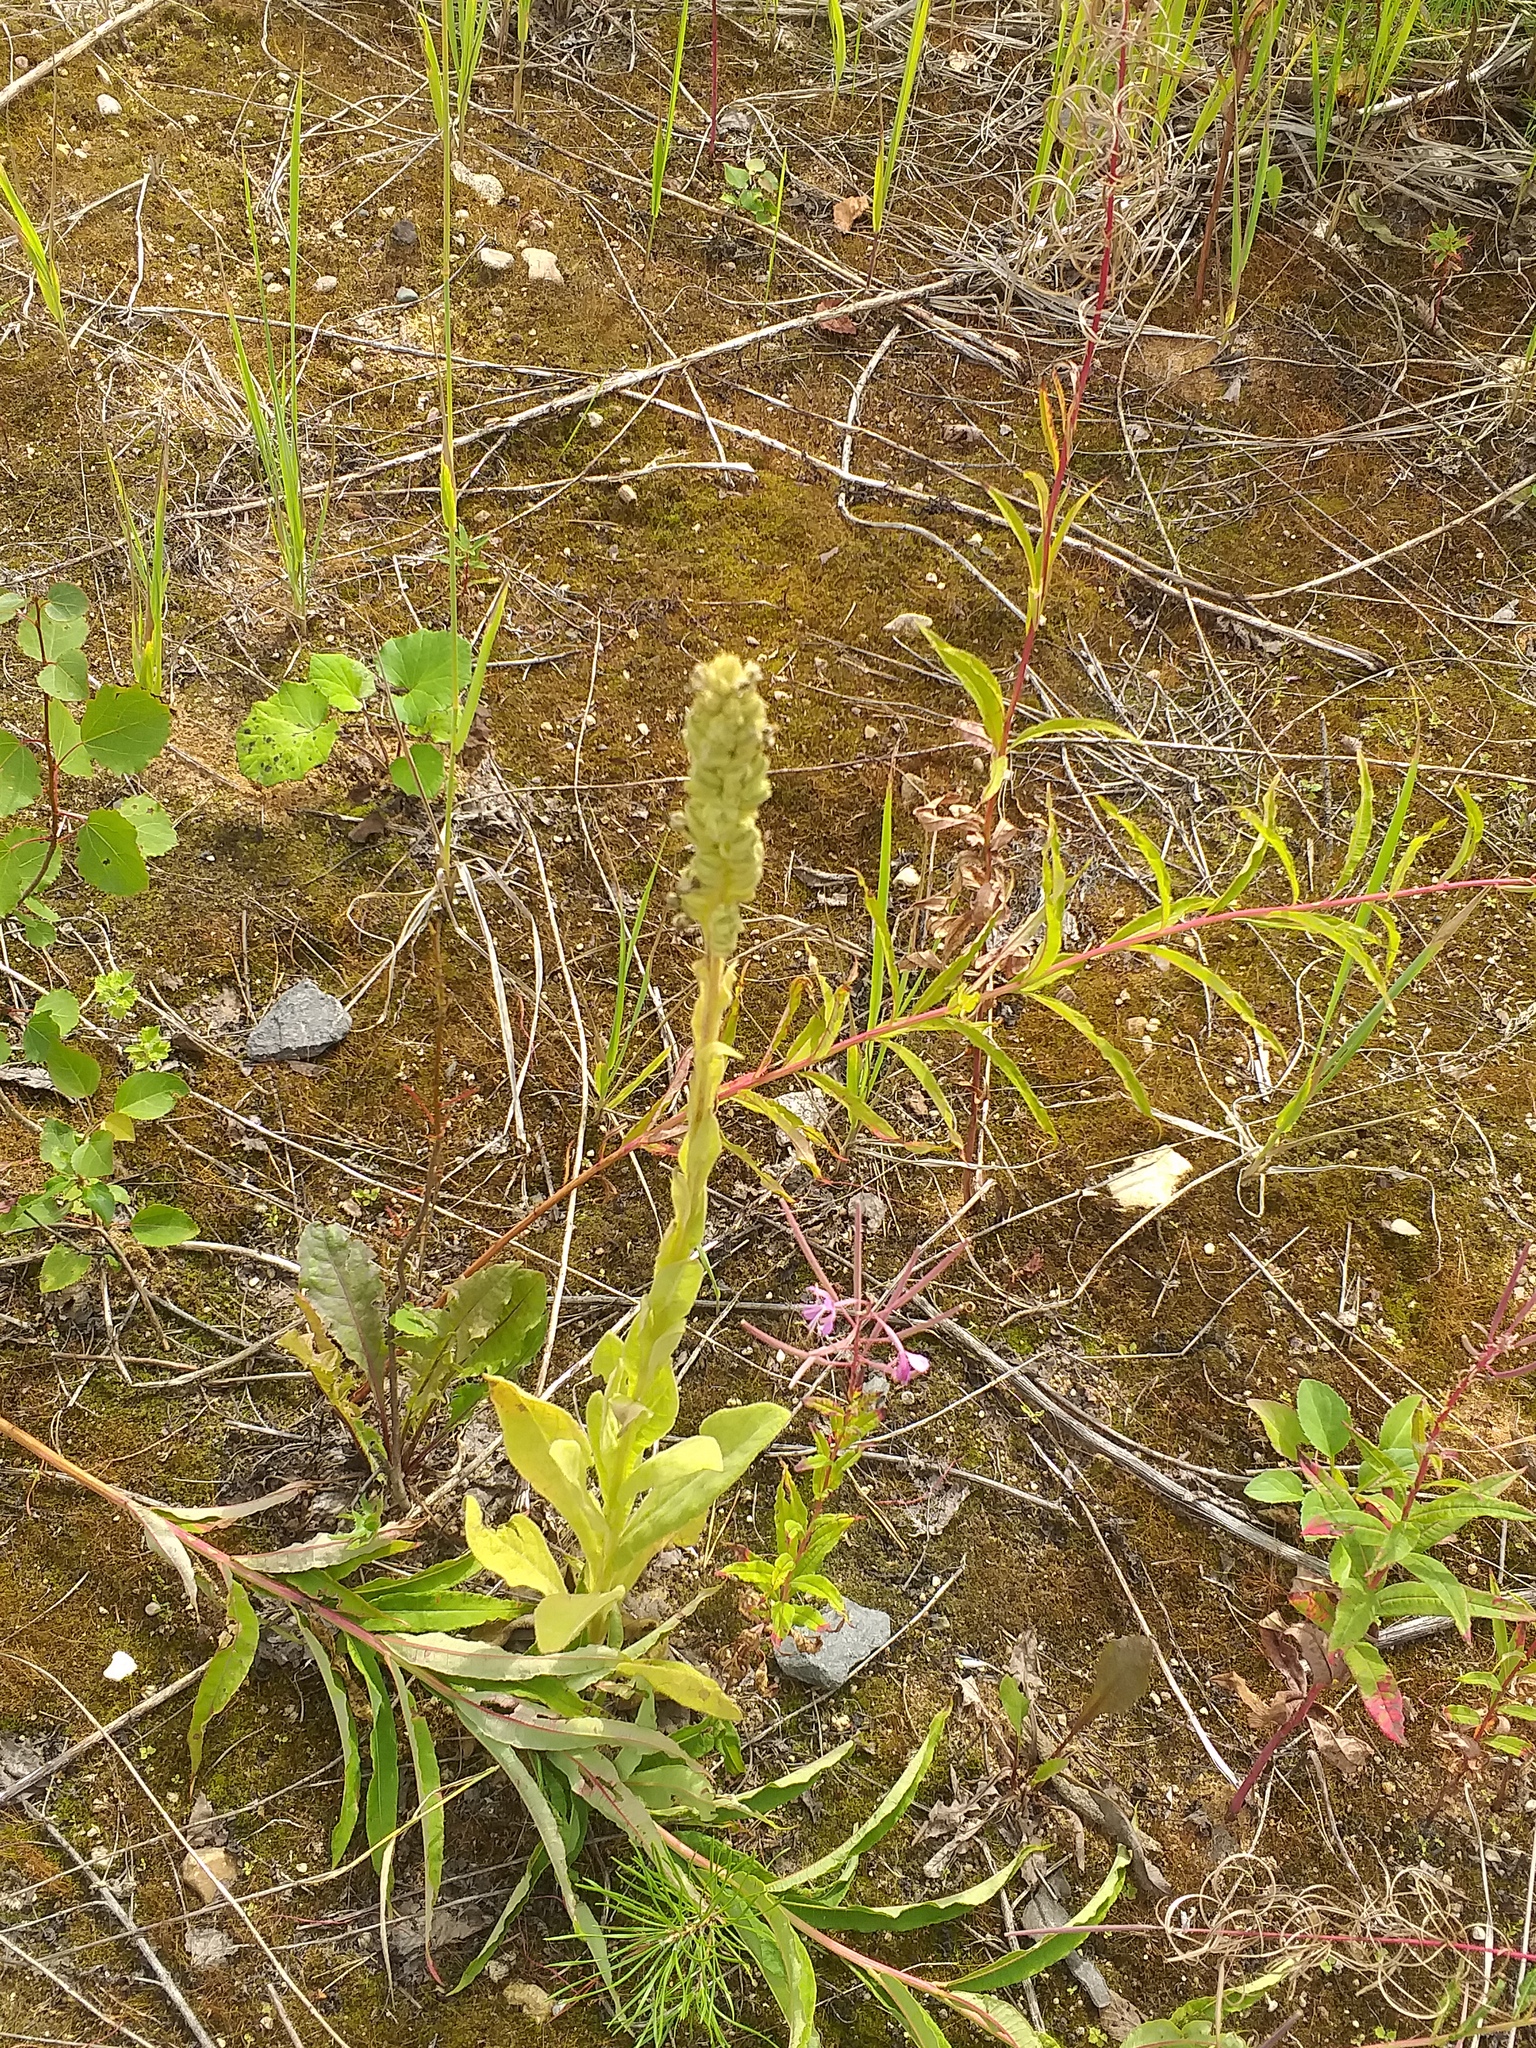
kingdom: Plantae
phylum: Tracheophyta
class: Magnoliopsida
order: Lamiales
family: Scrophulariaceae
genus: Verbascum
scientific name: Verbascum thapsus
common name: Common mullein
